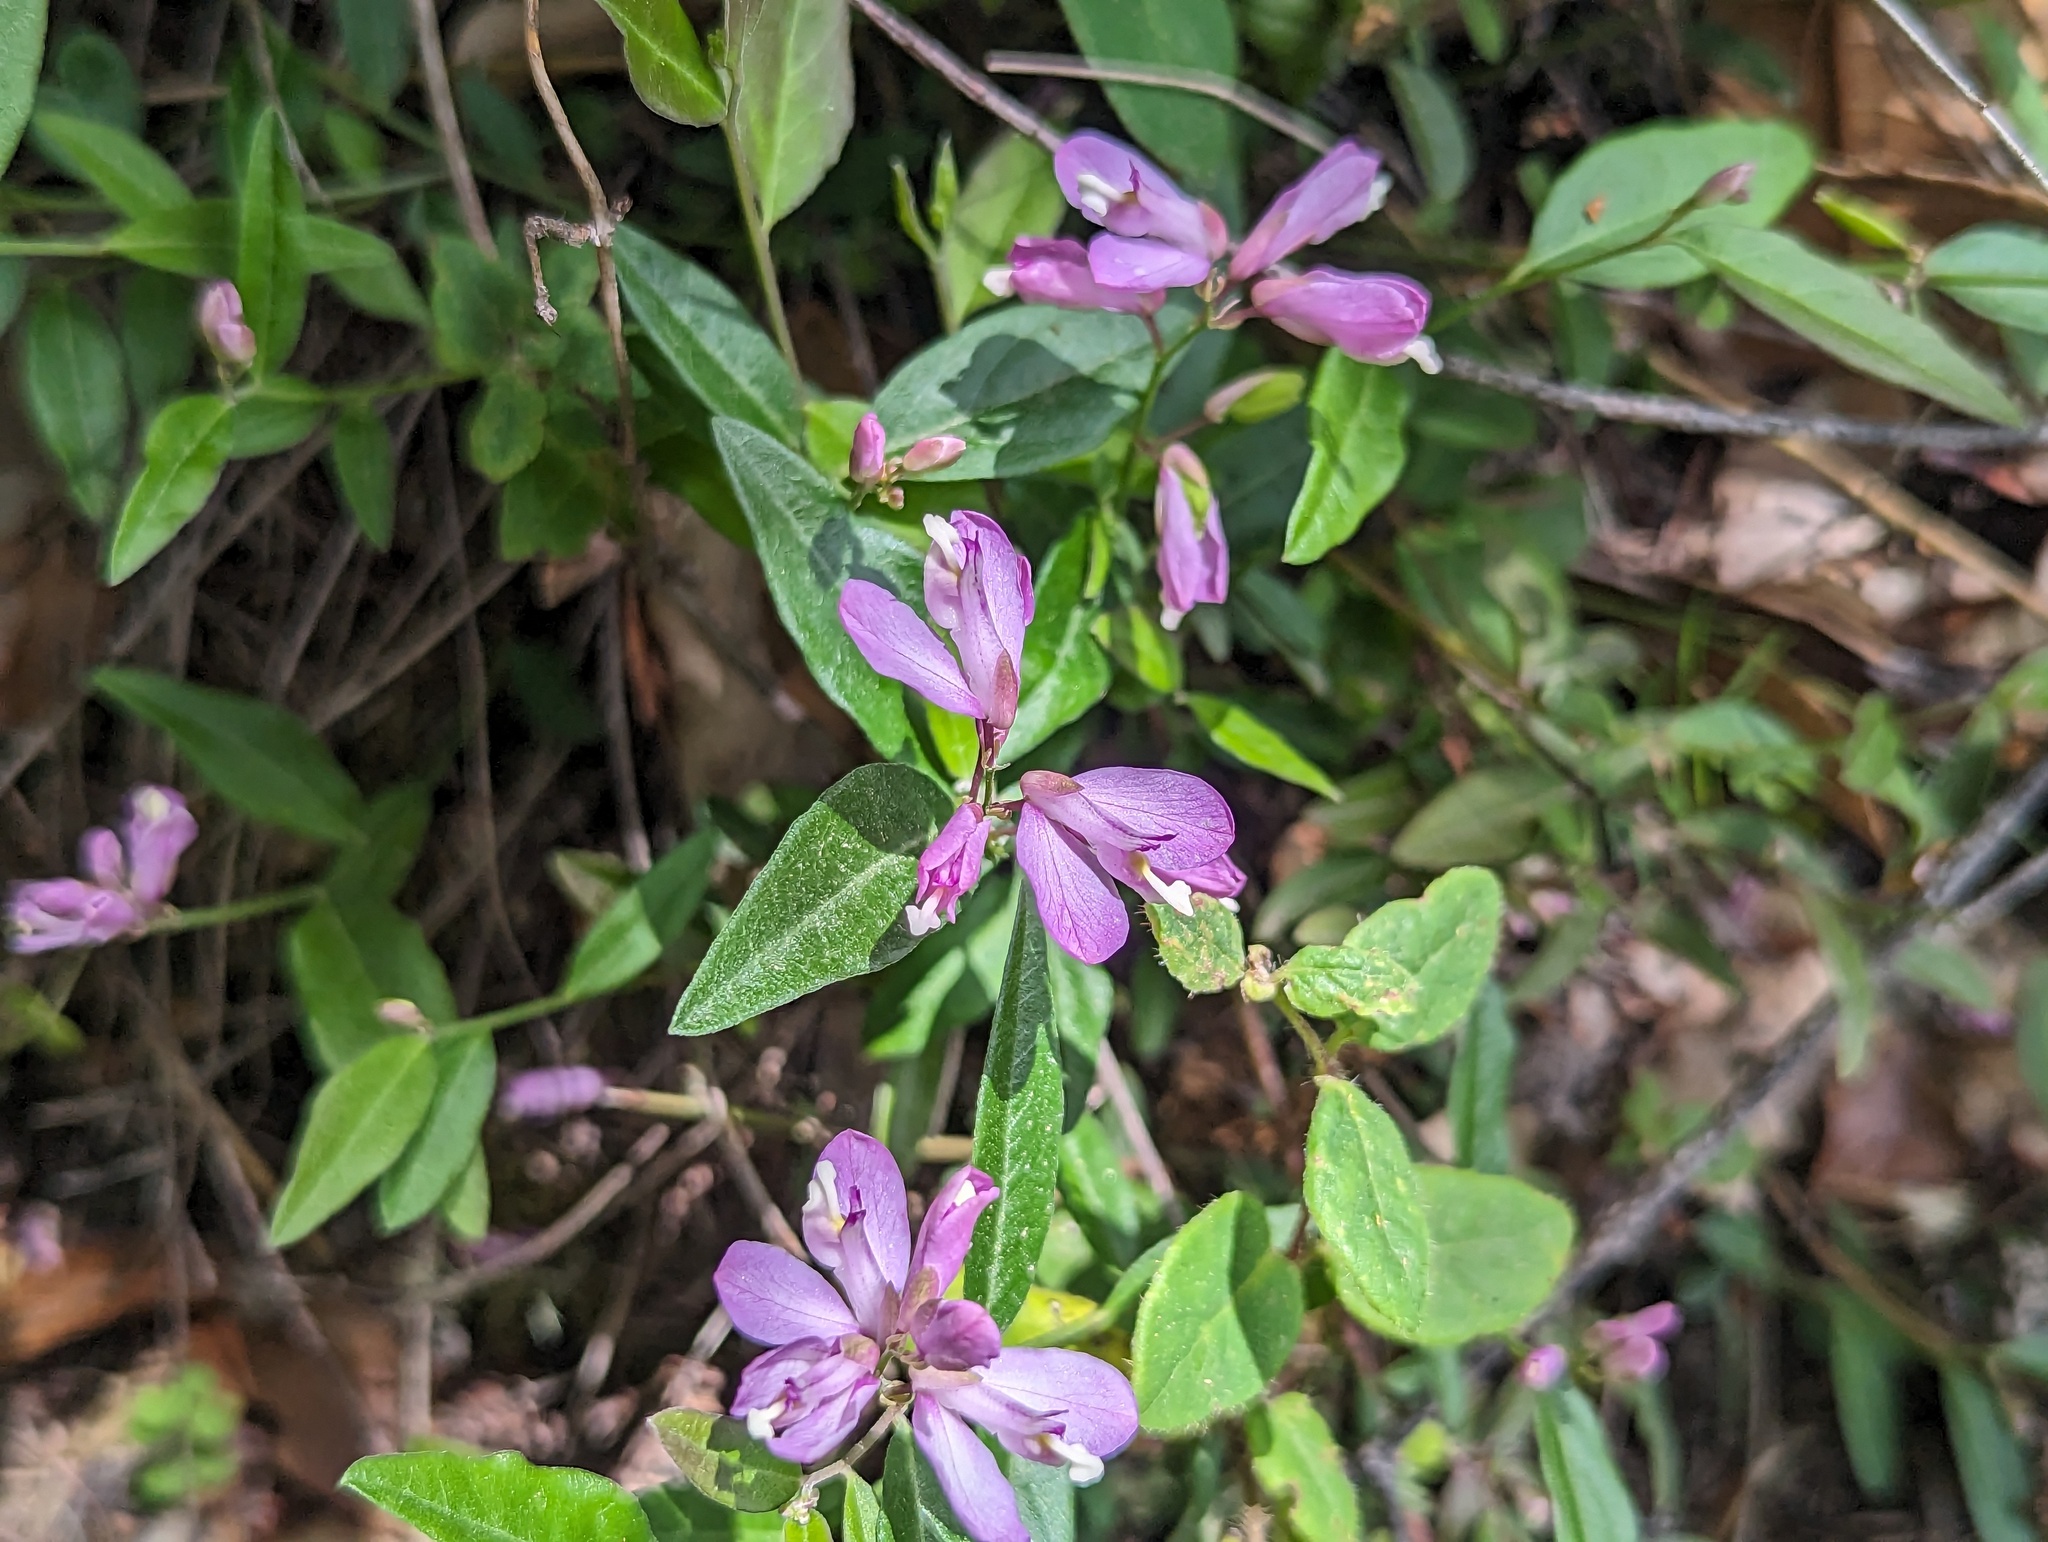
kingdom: Plantae
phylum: Tracheophyta
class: Magnoliopsida
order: Fabales
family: Polygalaceae
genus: Rhinotropis
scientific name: Rhinotropis californica
